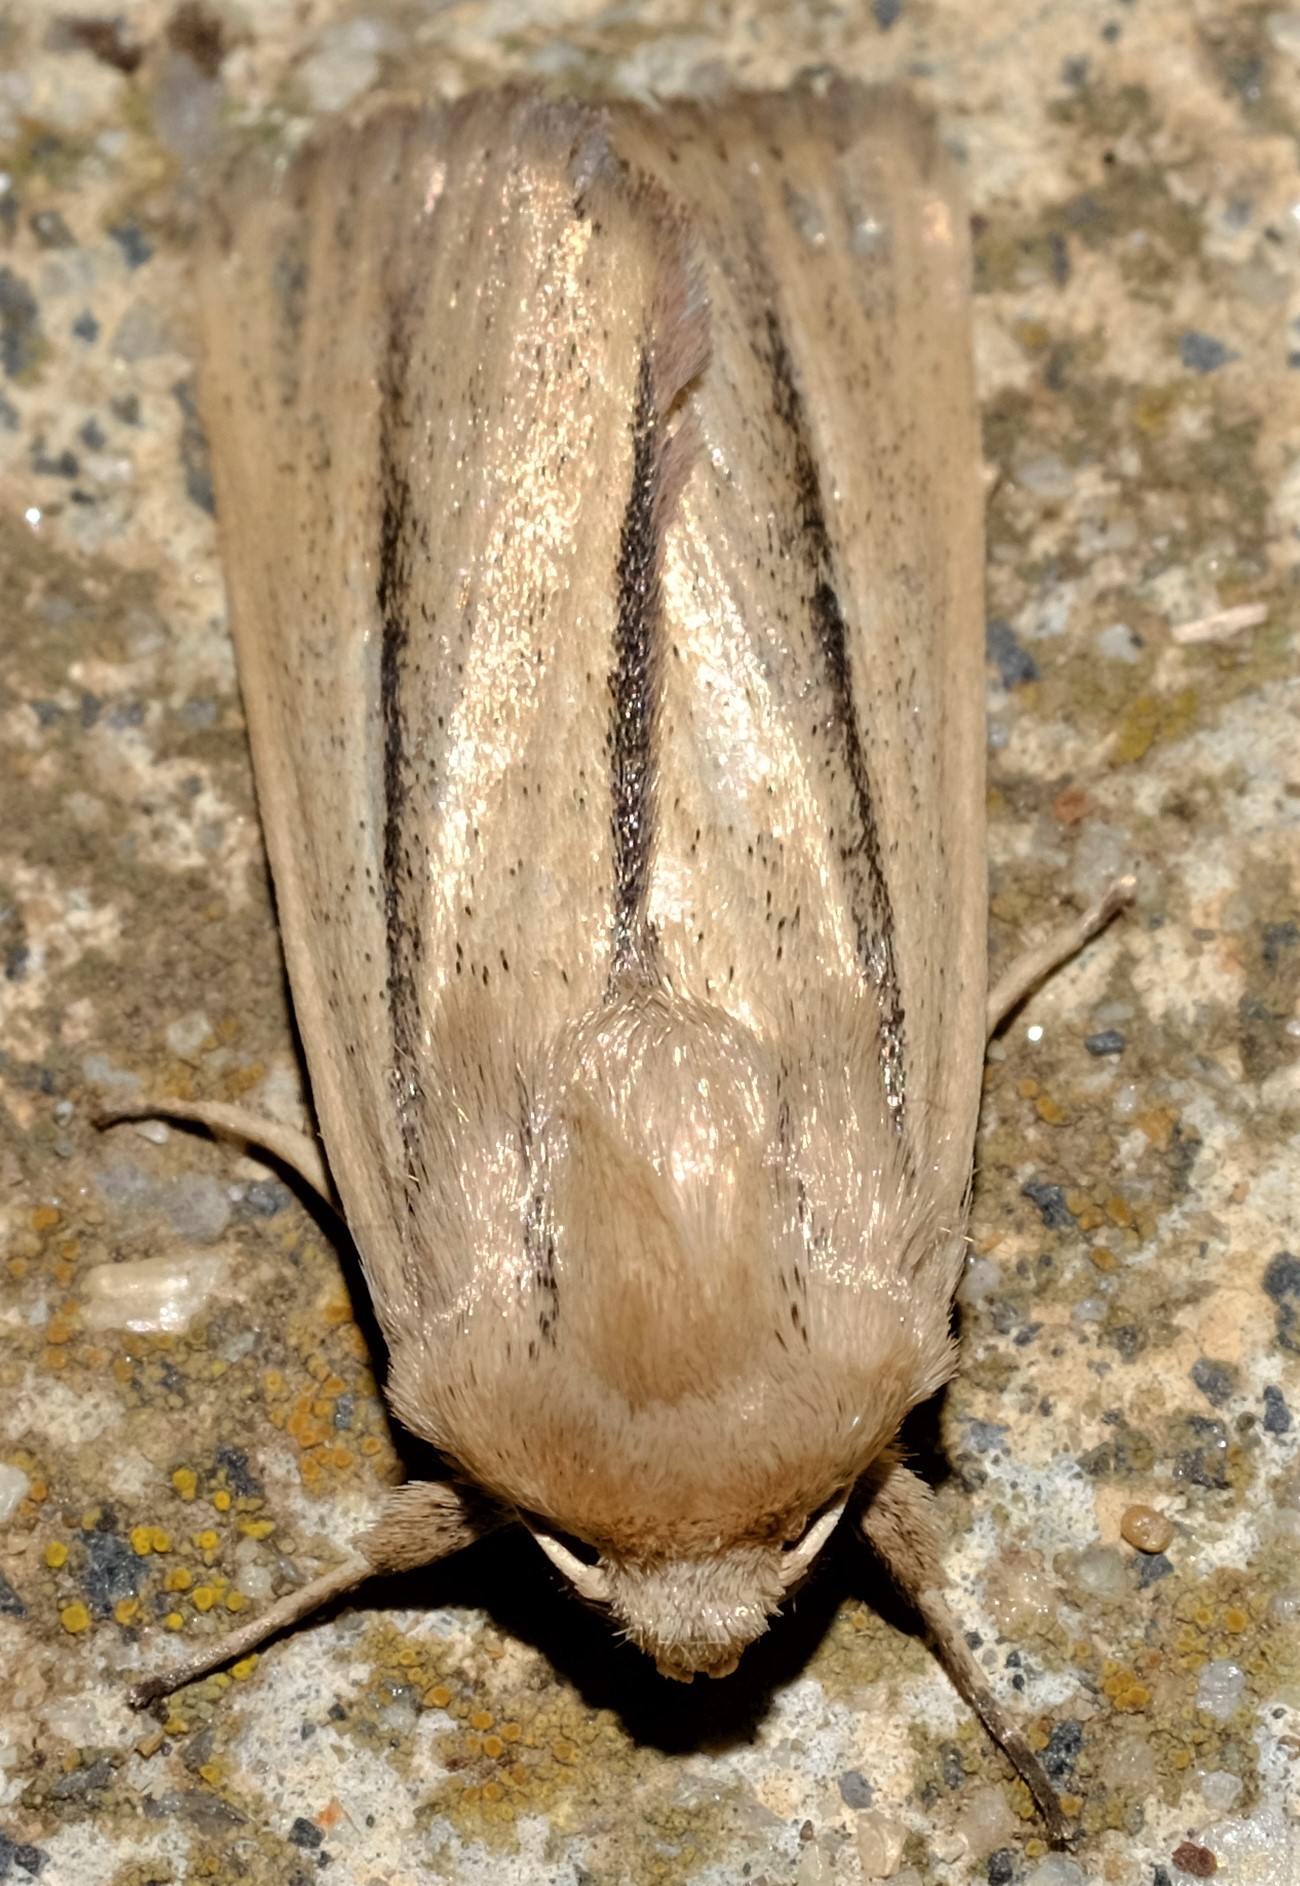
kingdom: Animalia
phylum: Arthropoda
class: Insecta
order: Lepidoptera
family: Noctuidae
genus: Leucania
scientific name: Leucania diatrecta
